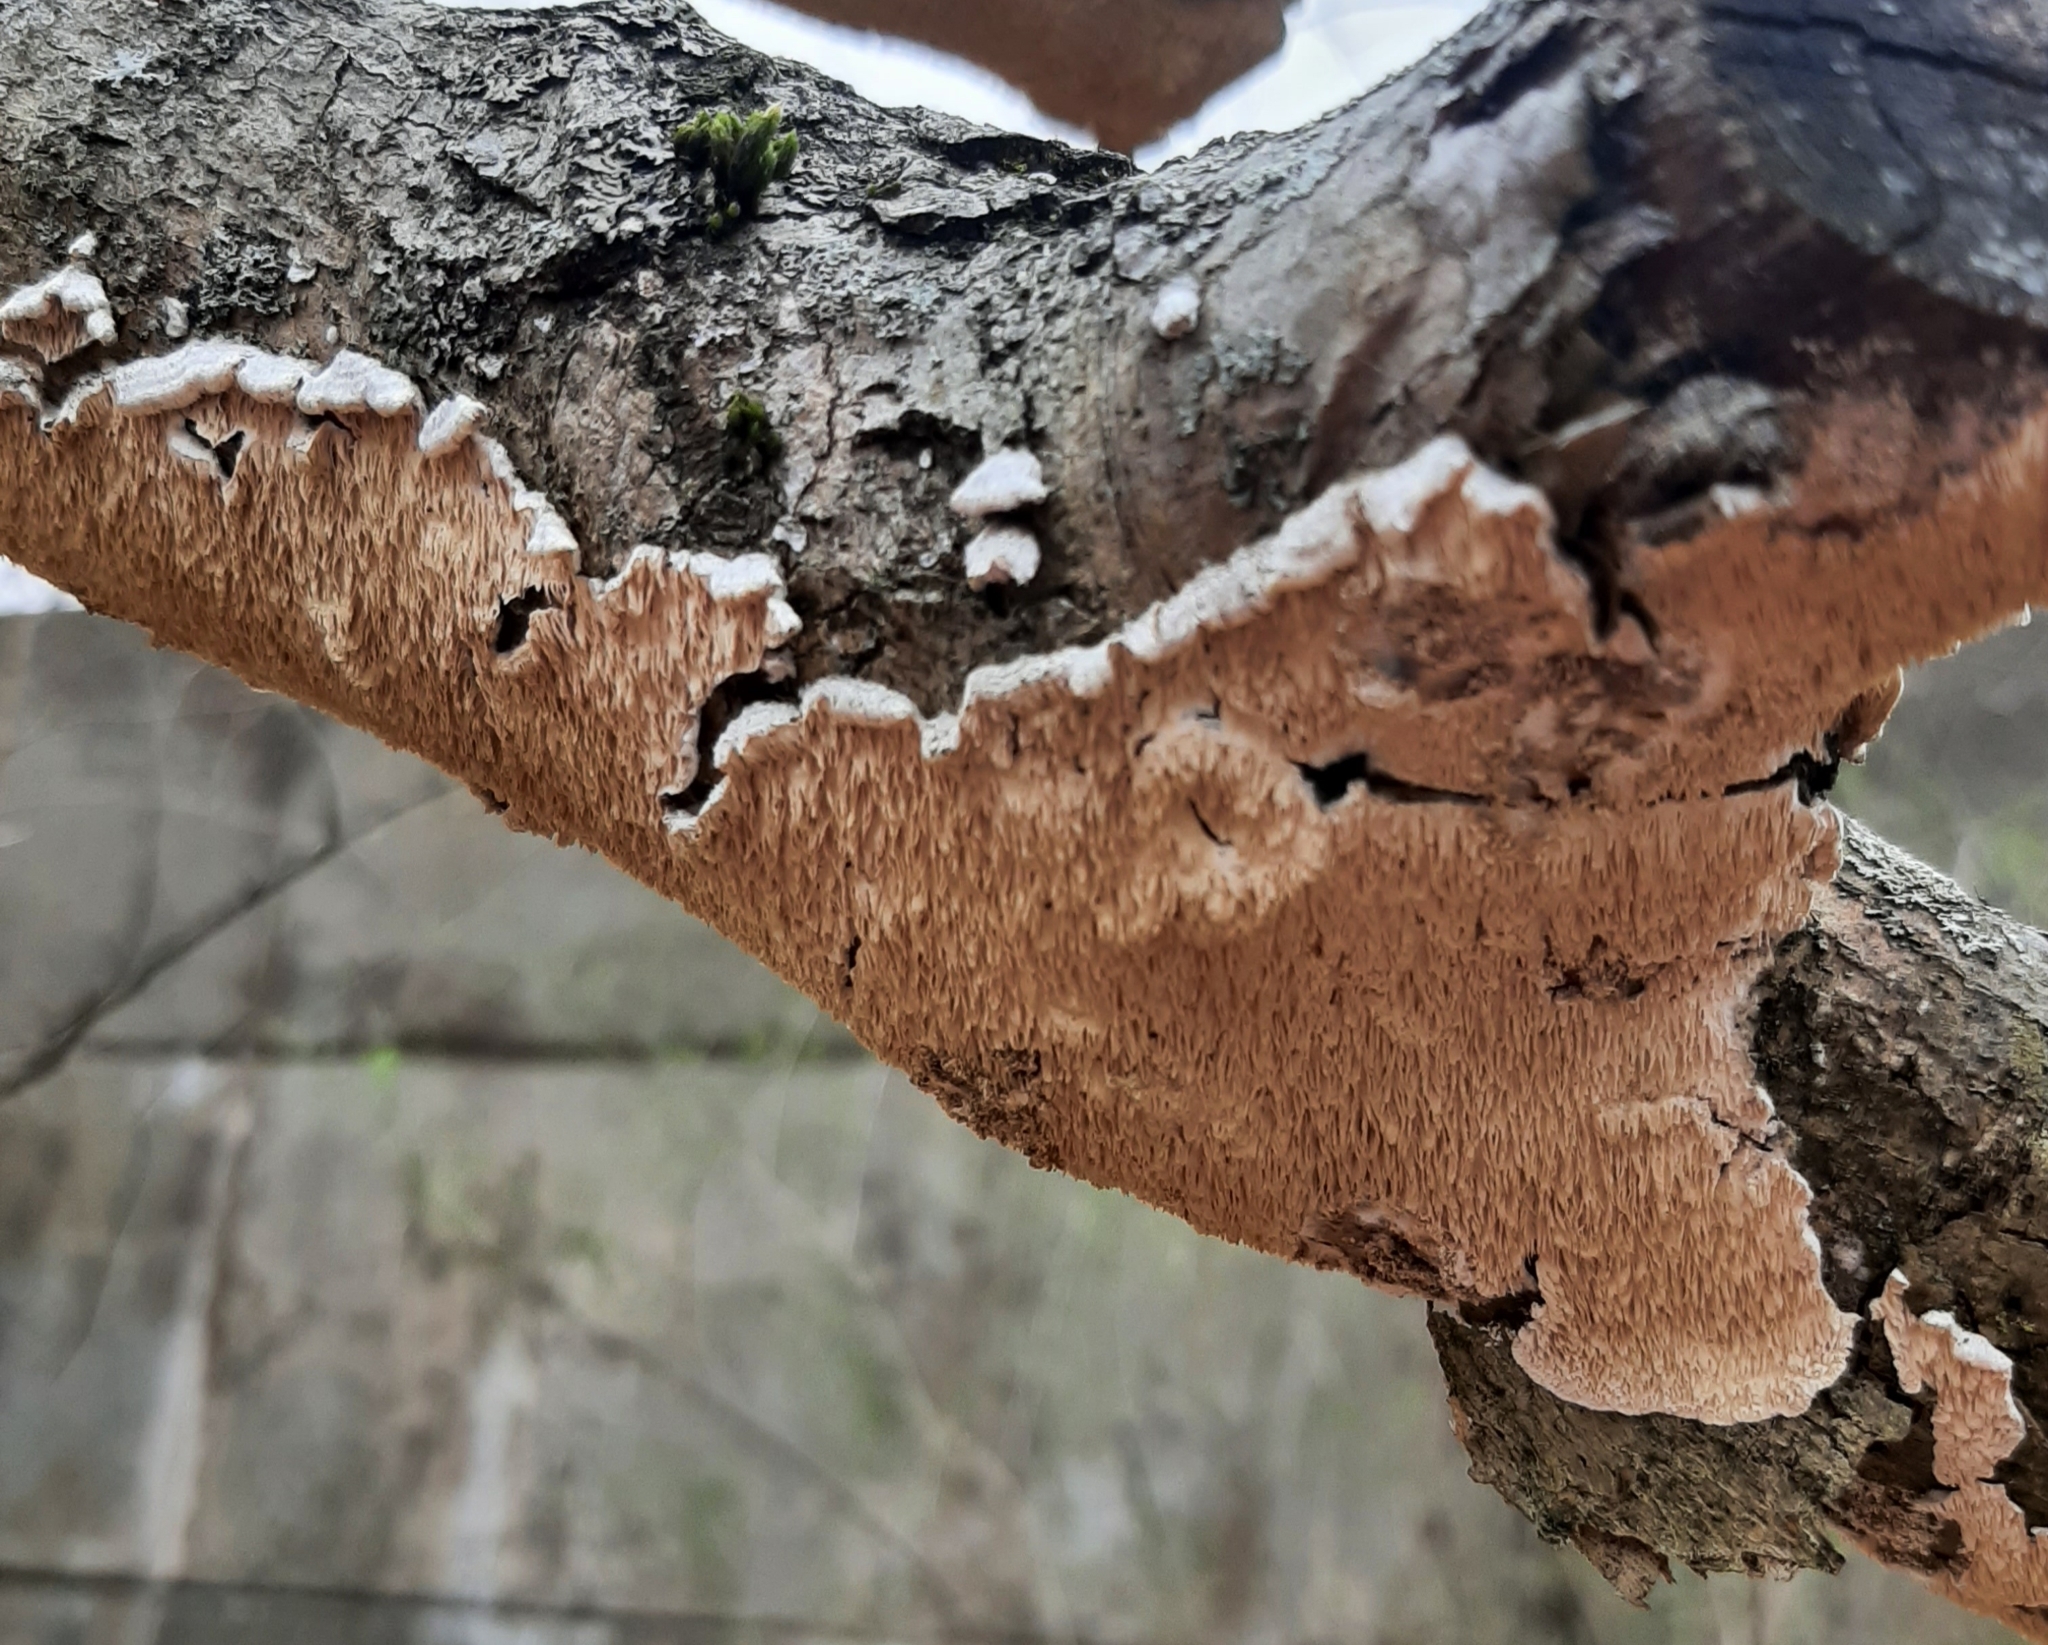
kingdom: Fungi
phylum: Basidiomycota
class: Agaricomycetes
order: Polyporales
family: Irpicaceae
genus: Irpex
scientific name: Irpex lacteus
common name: Milk-white toothed polypore
